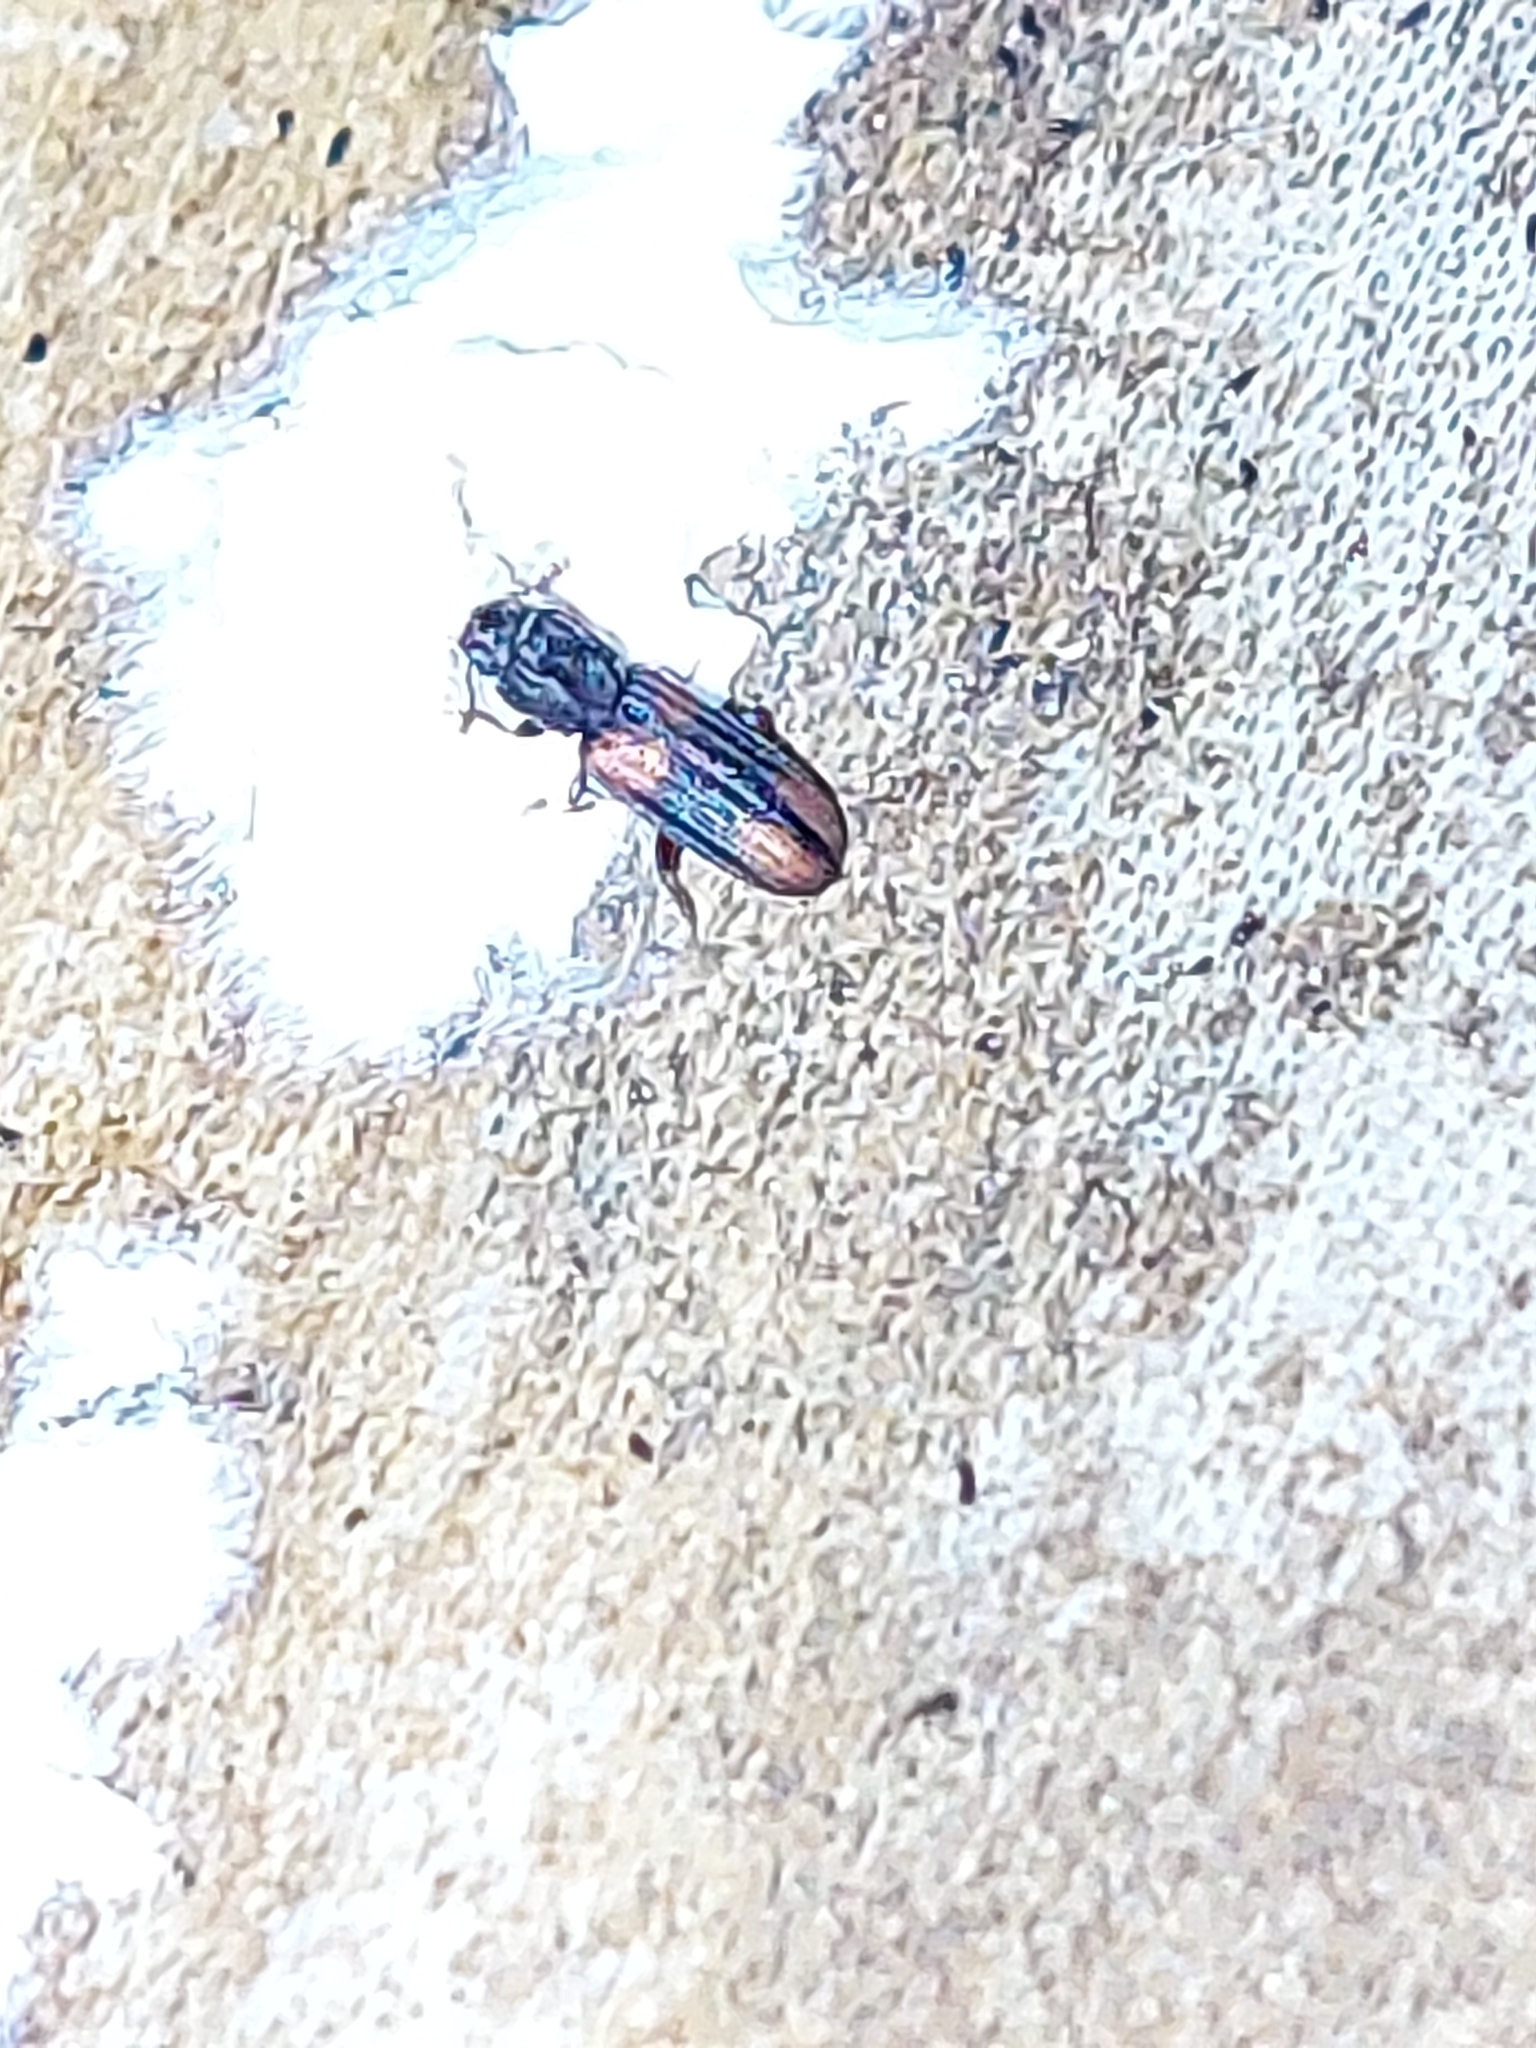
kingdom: Animalia
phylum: Arthropoda
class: Insecta
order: Coleoptera
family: Zopheridae
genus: Bitoma
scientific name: Bitoma crenata
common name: Bark beetle
